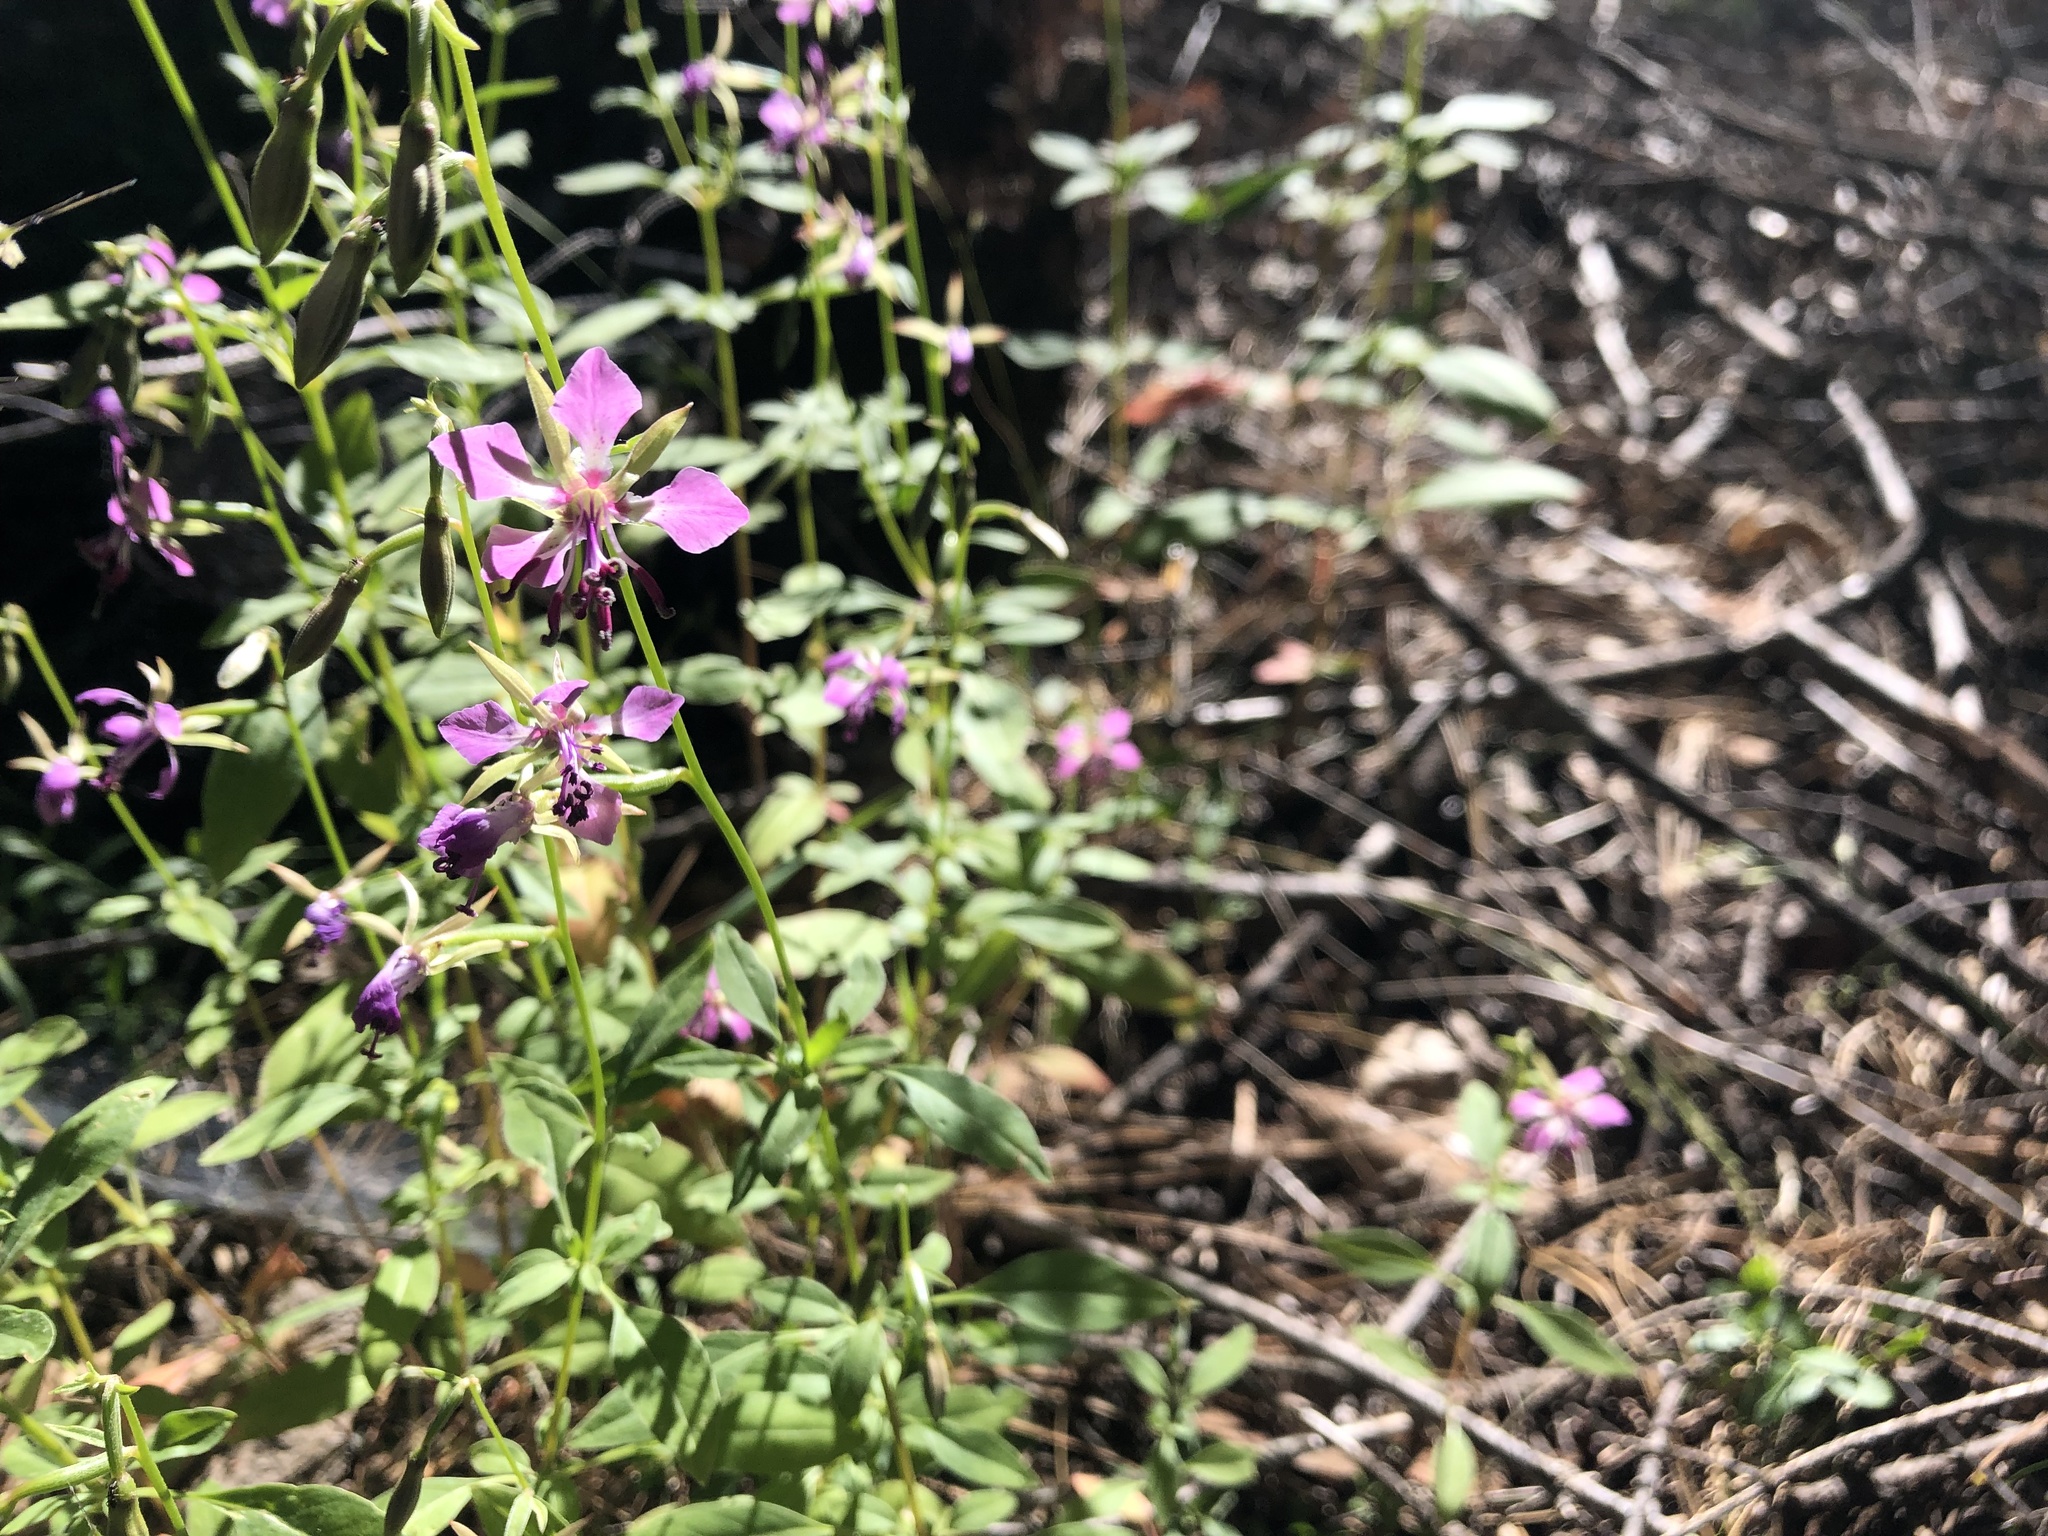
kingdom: Plantae
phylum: Tracheophyta
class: Magnoliopsida
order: Myrtales
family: Onagraceae
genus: Clarkia
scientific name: Clarkia rhomboidea
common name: Broadleaf clarkia
